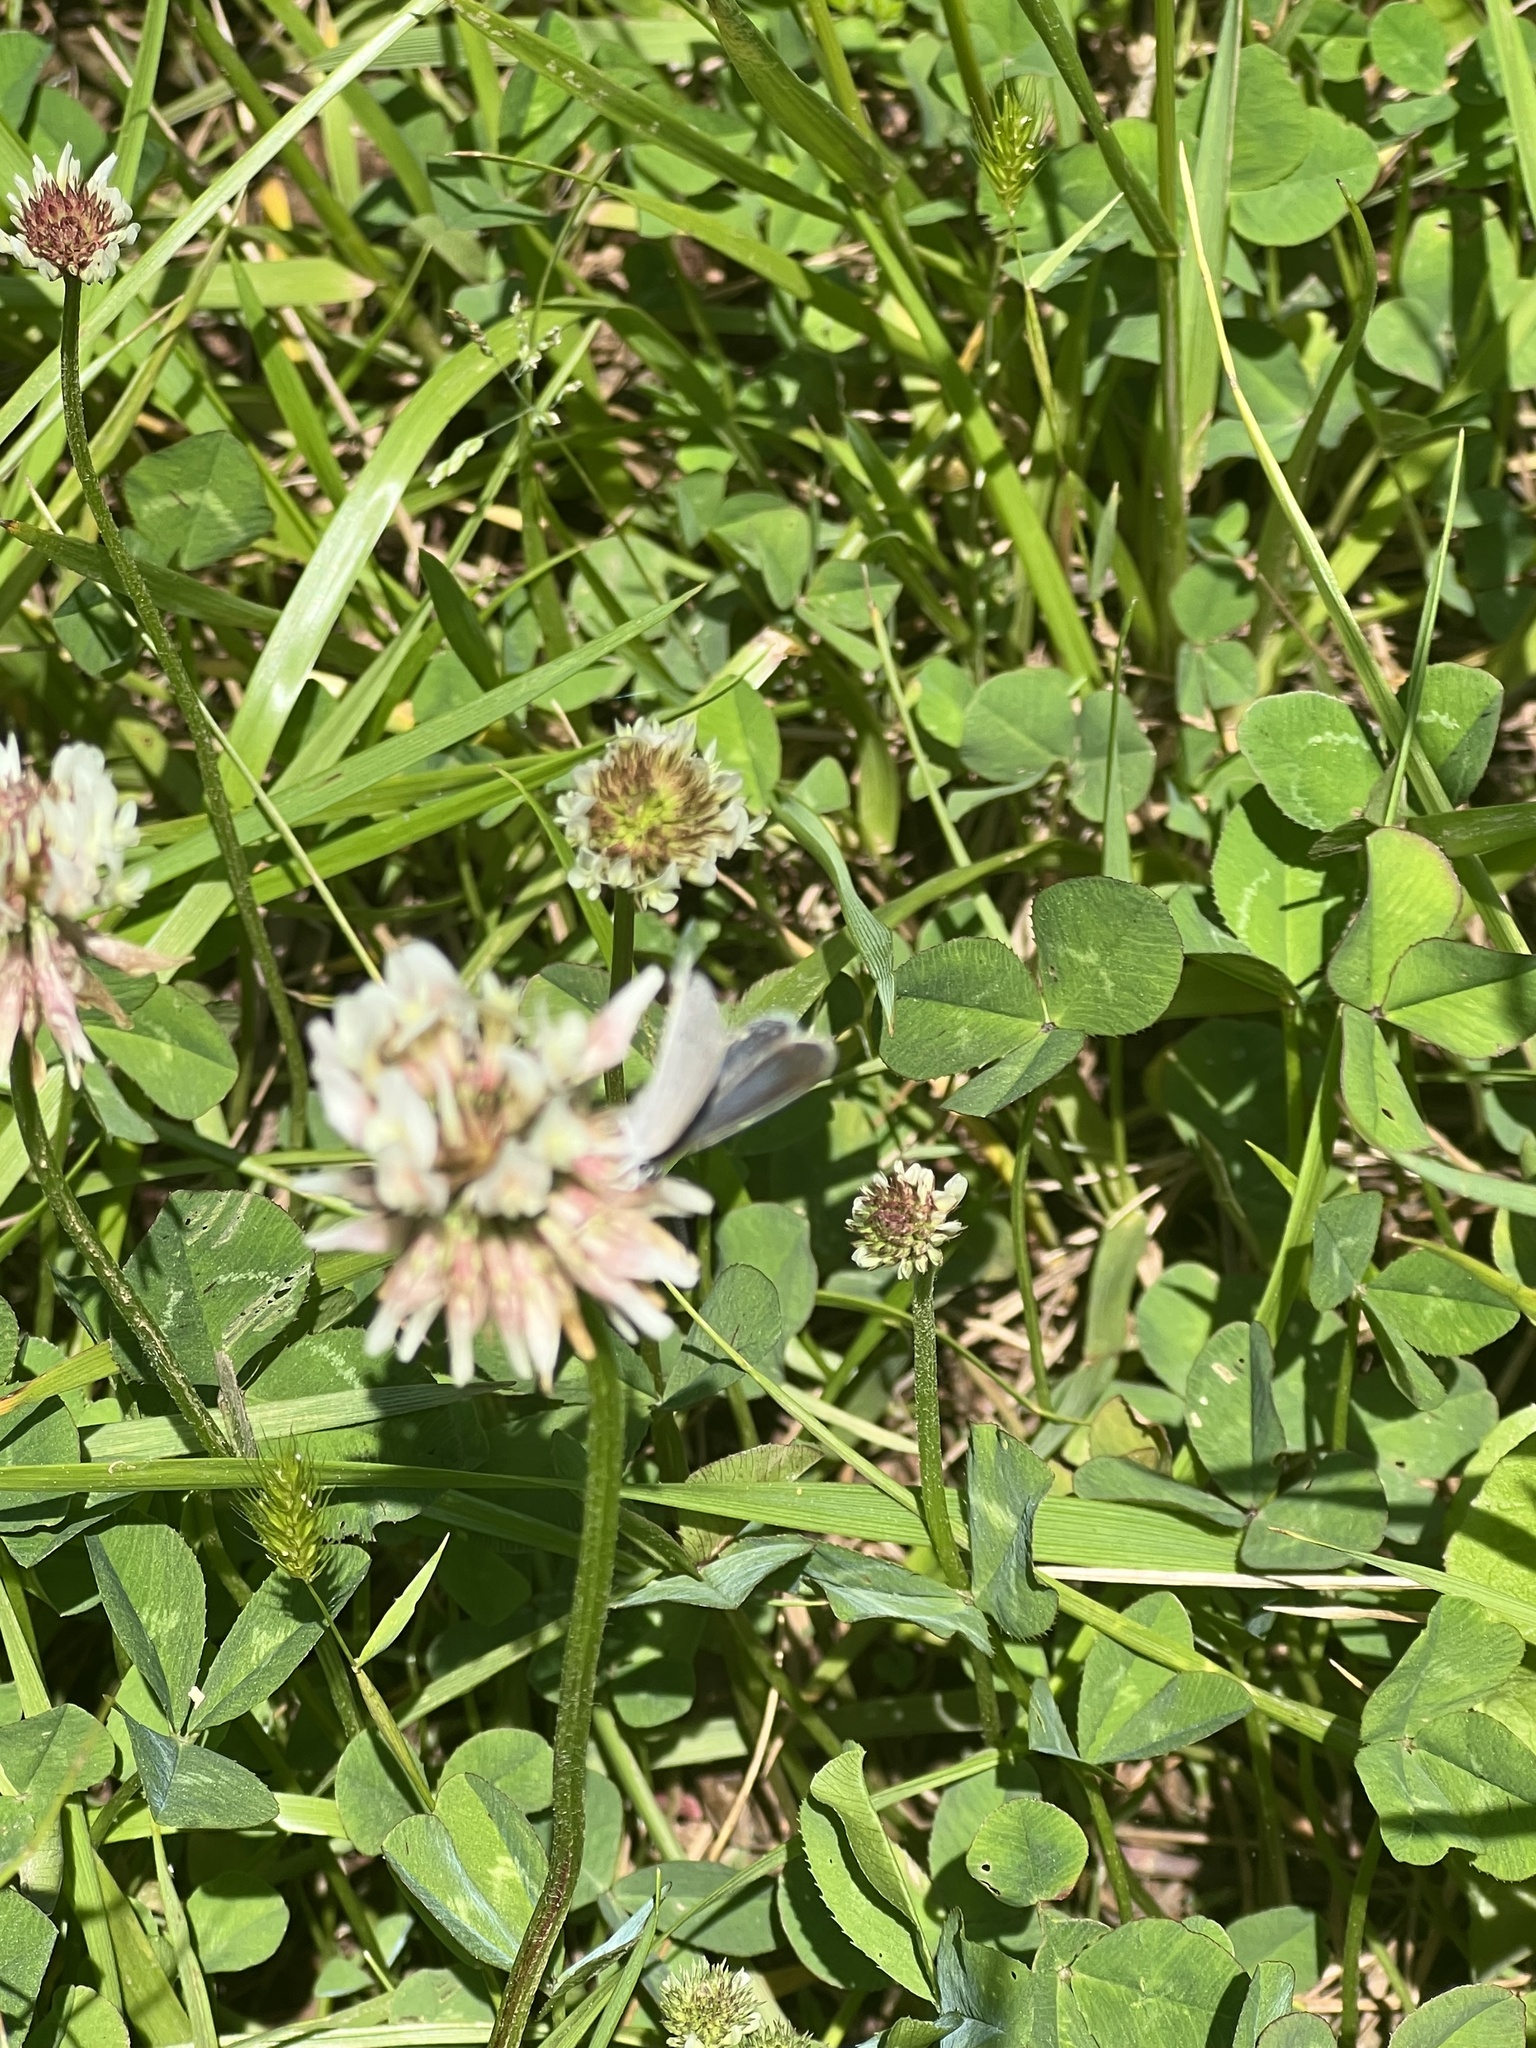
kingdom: Animalia
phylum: Arthropoda
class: Insecta
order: Lepidoptera
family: Lycaenidae
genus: Elkalyce
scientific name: Elkalyce comyntas
